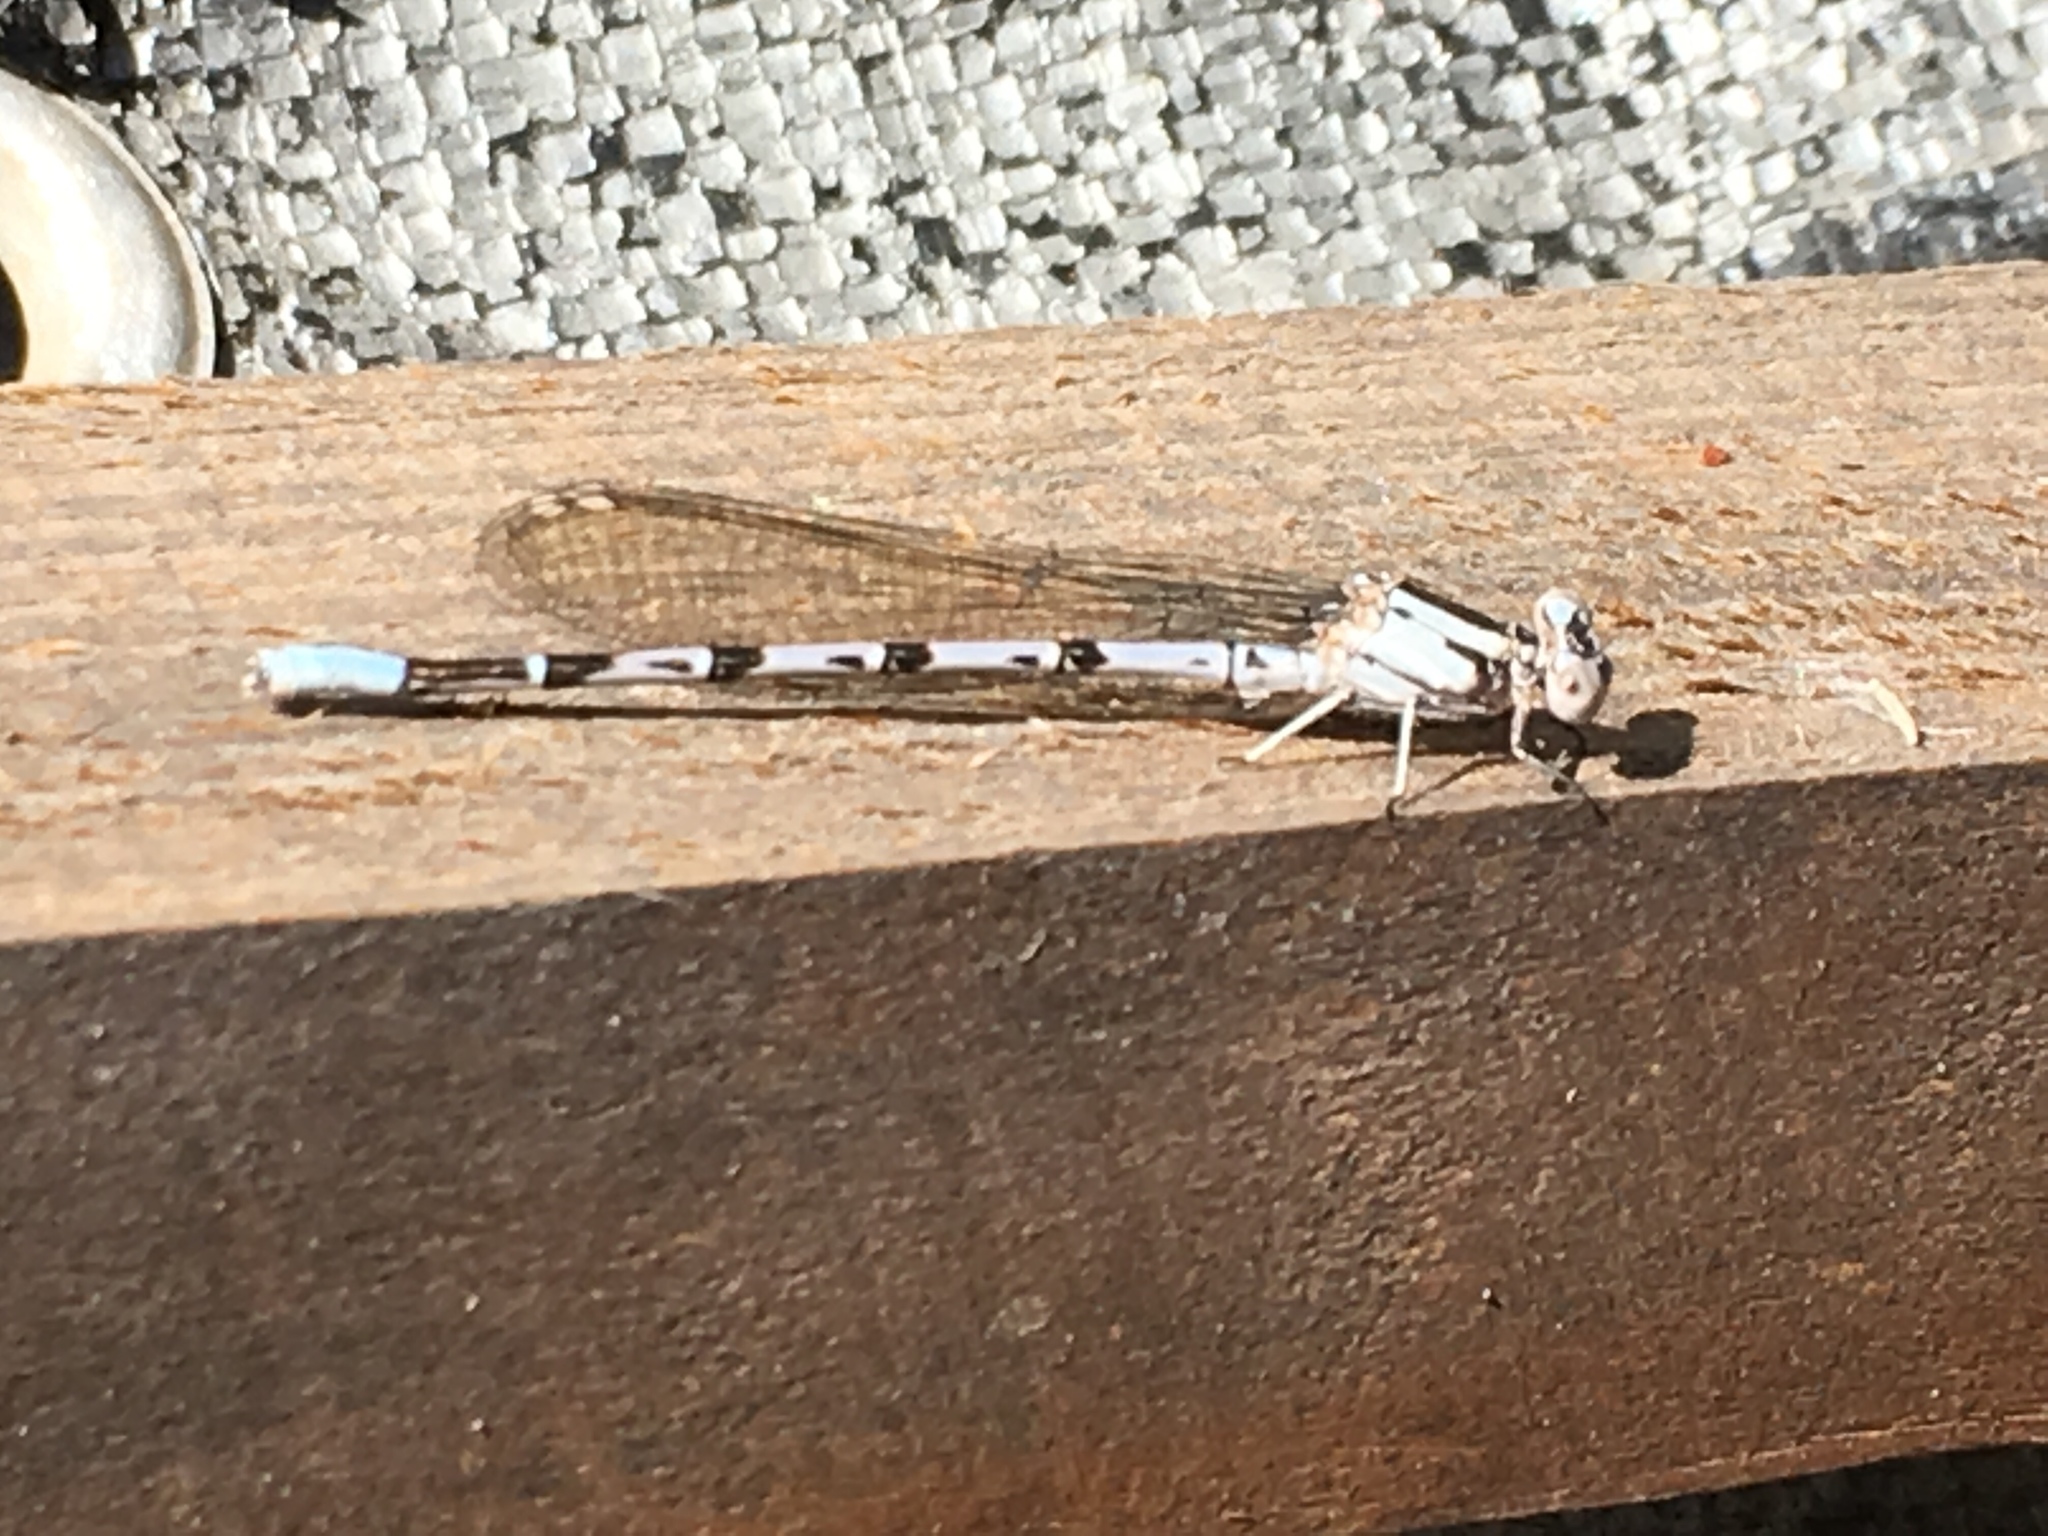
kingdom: Animalia
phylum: Arthropoda
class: Insecta
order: Odonata
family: Coenagrionidae
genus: Argia
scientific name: Argia vivida
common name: Vivid dancer
